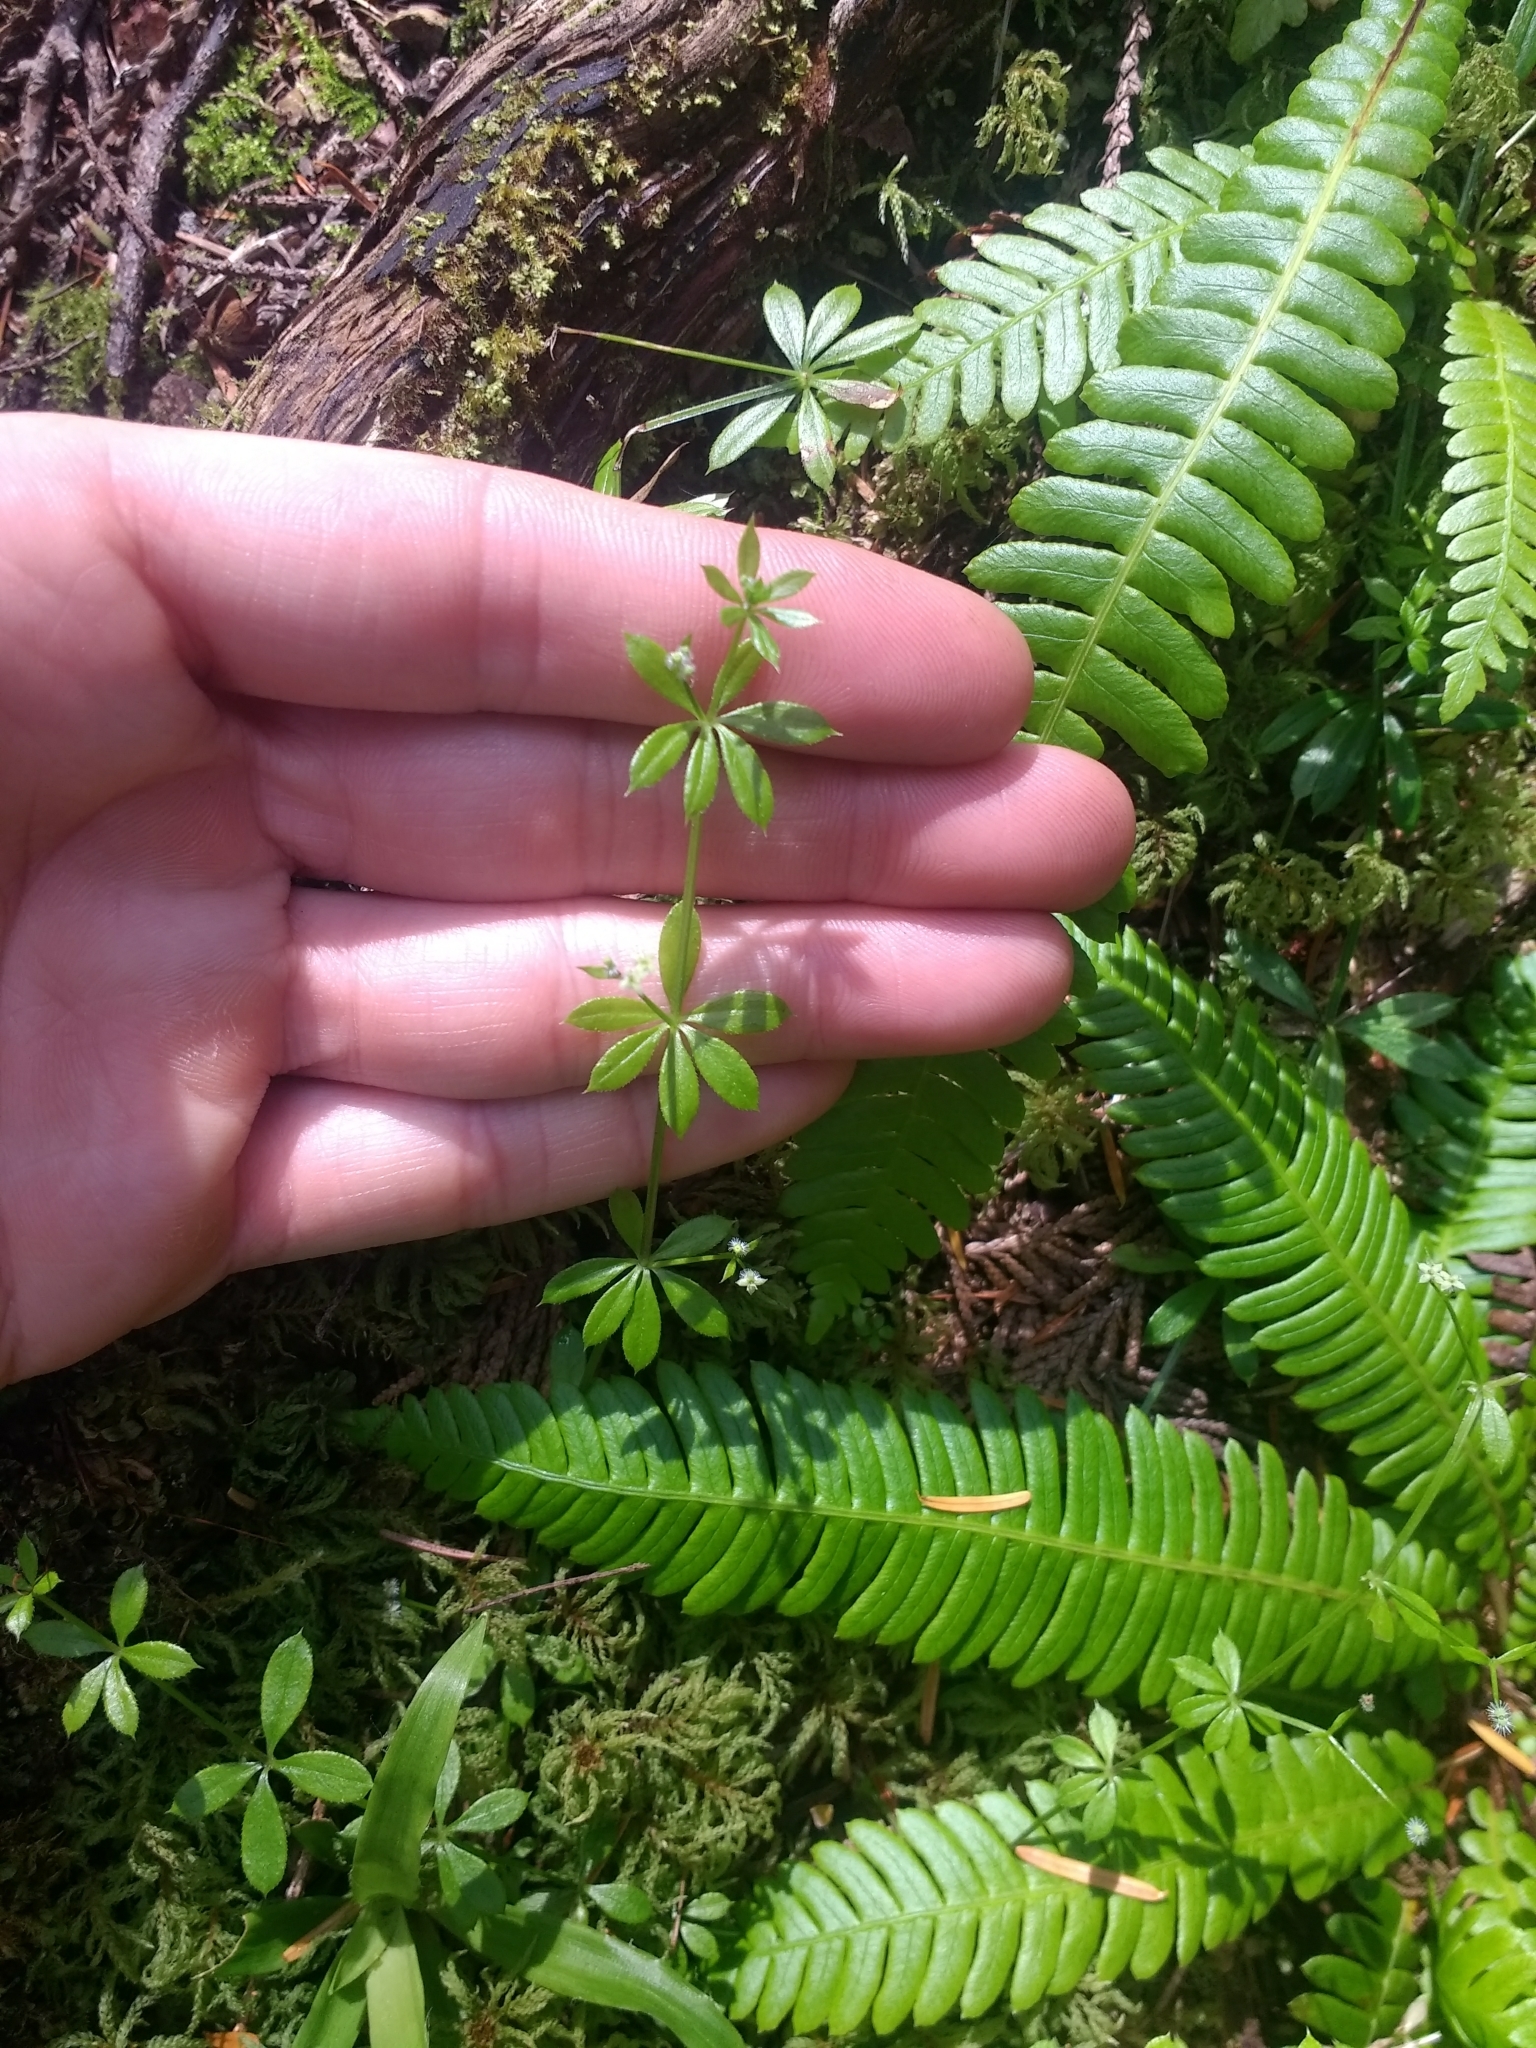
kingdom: Plantae
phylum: Tracheophyta
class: Magnoliopsida
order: Gentianales
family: Rubiaceae
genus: Galium
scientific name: Galium triflorum
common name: Fragrant bedstraw
